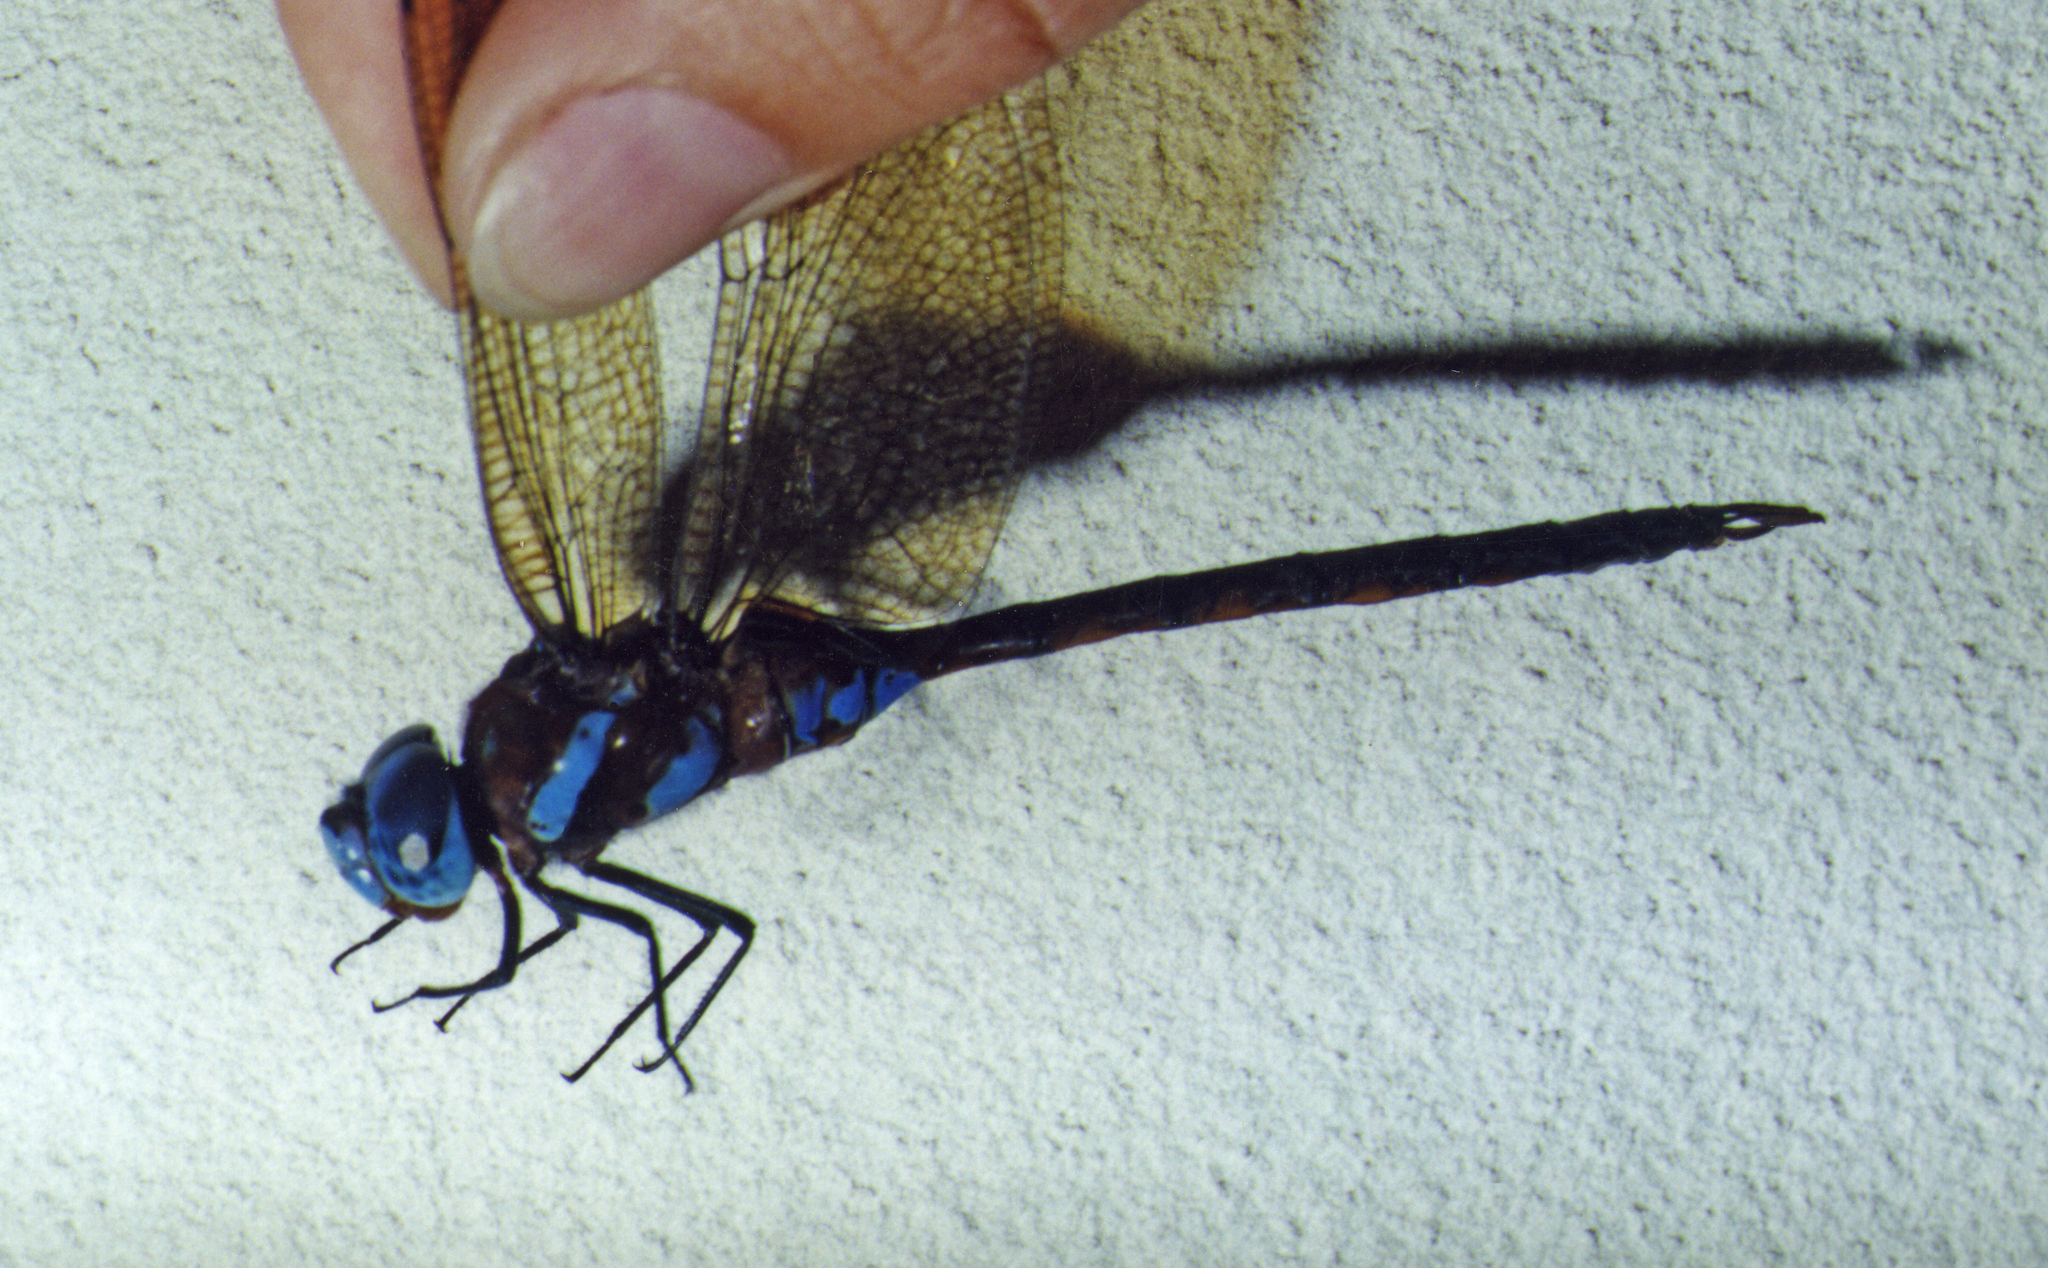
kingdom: Animalia
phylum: Arthropoda
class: Insecta
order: Odonata
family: Aeshnidae
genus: Anaciaeschna
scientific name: Anaciaeschna martini
